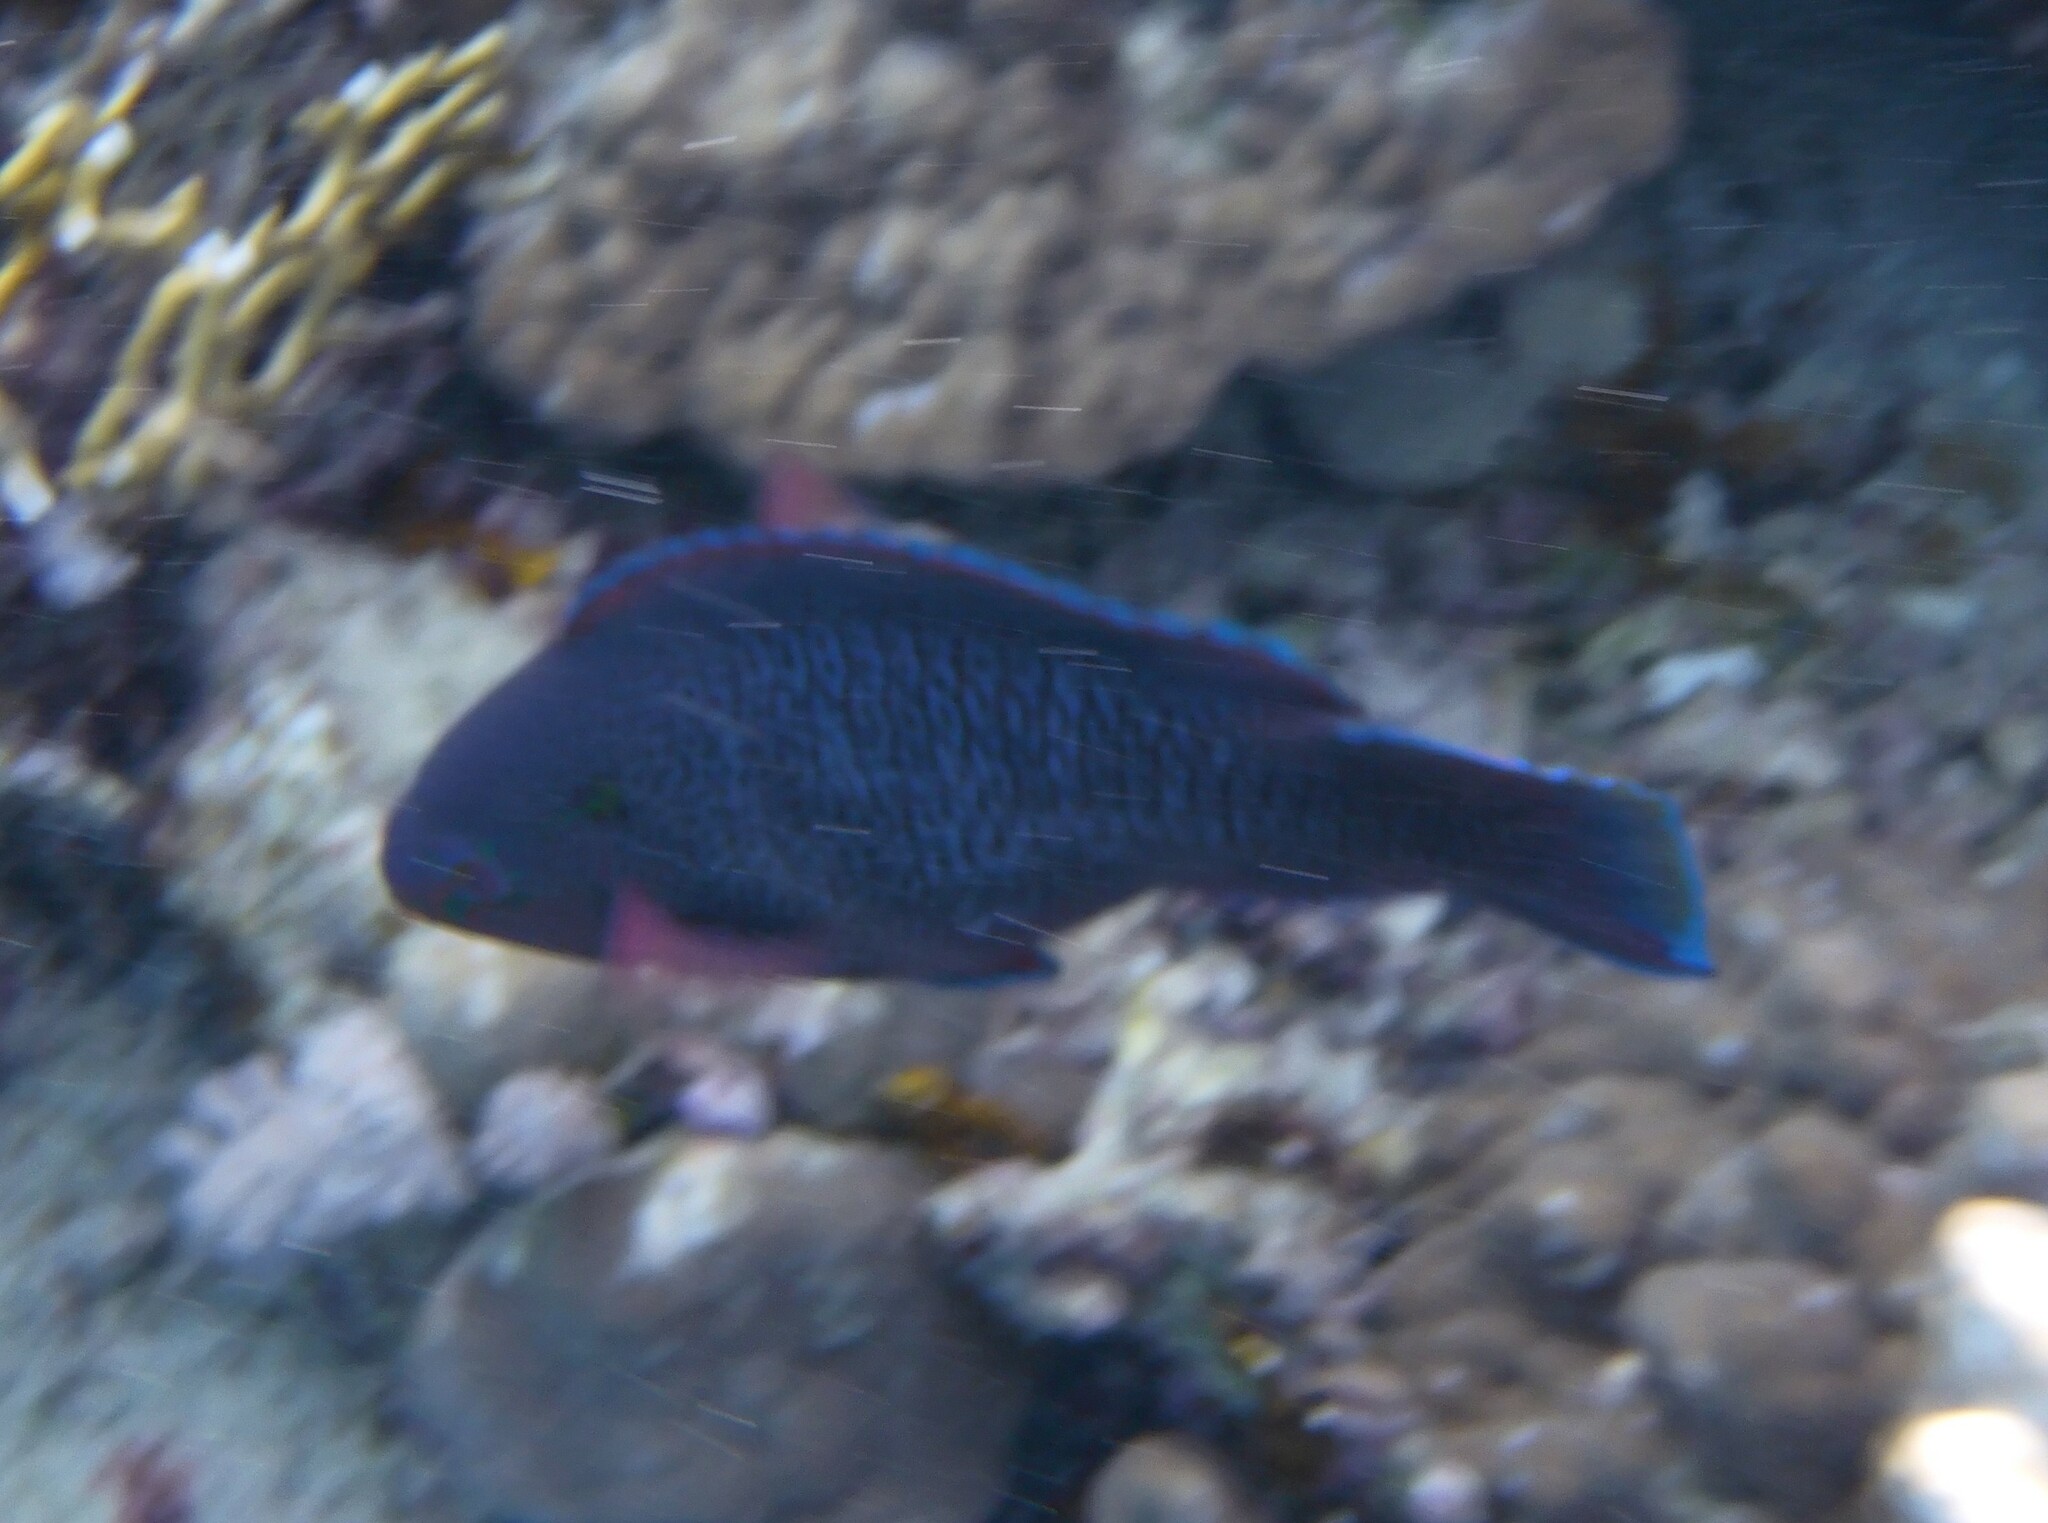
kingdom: Animalia
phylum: Chordata
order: Perciformes
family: Scaridae
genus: Scarus
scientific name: Scarus niger
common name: Dusky parrotfish
